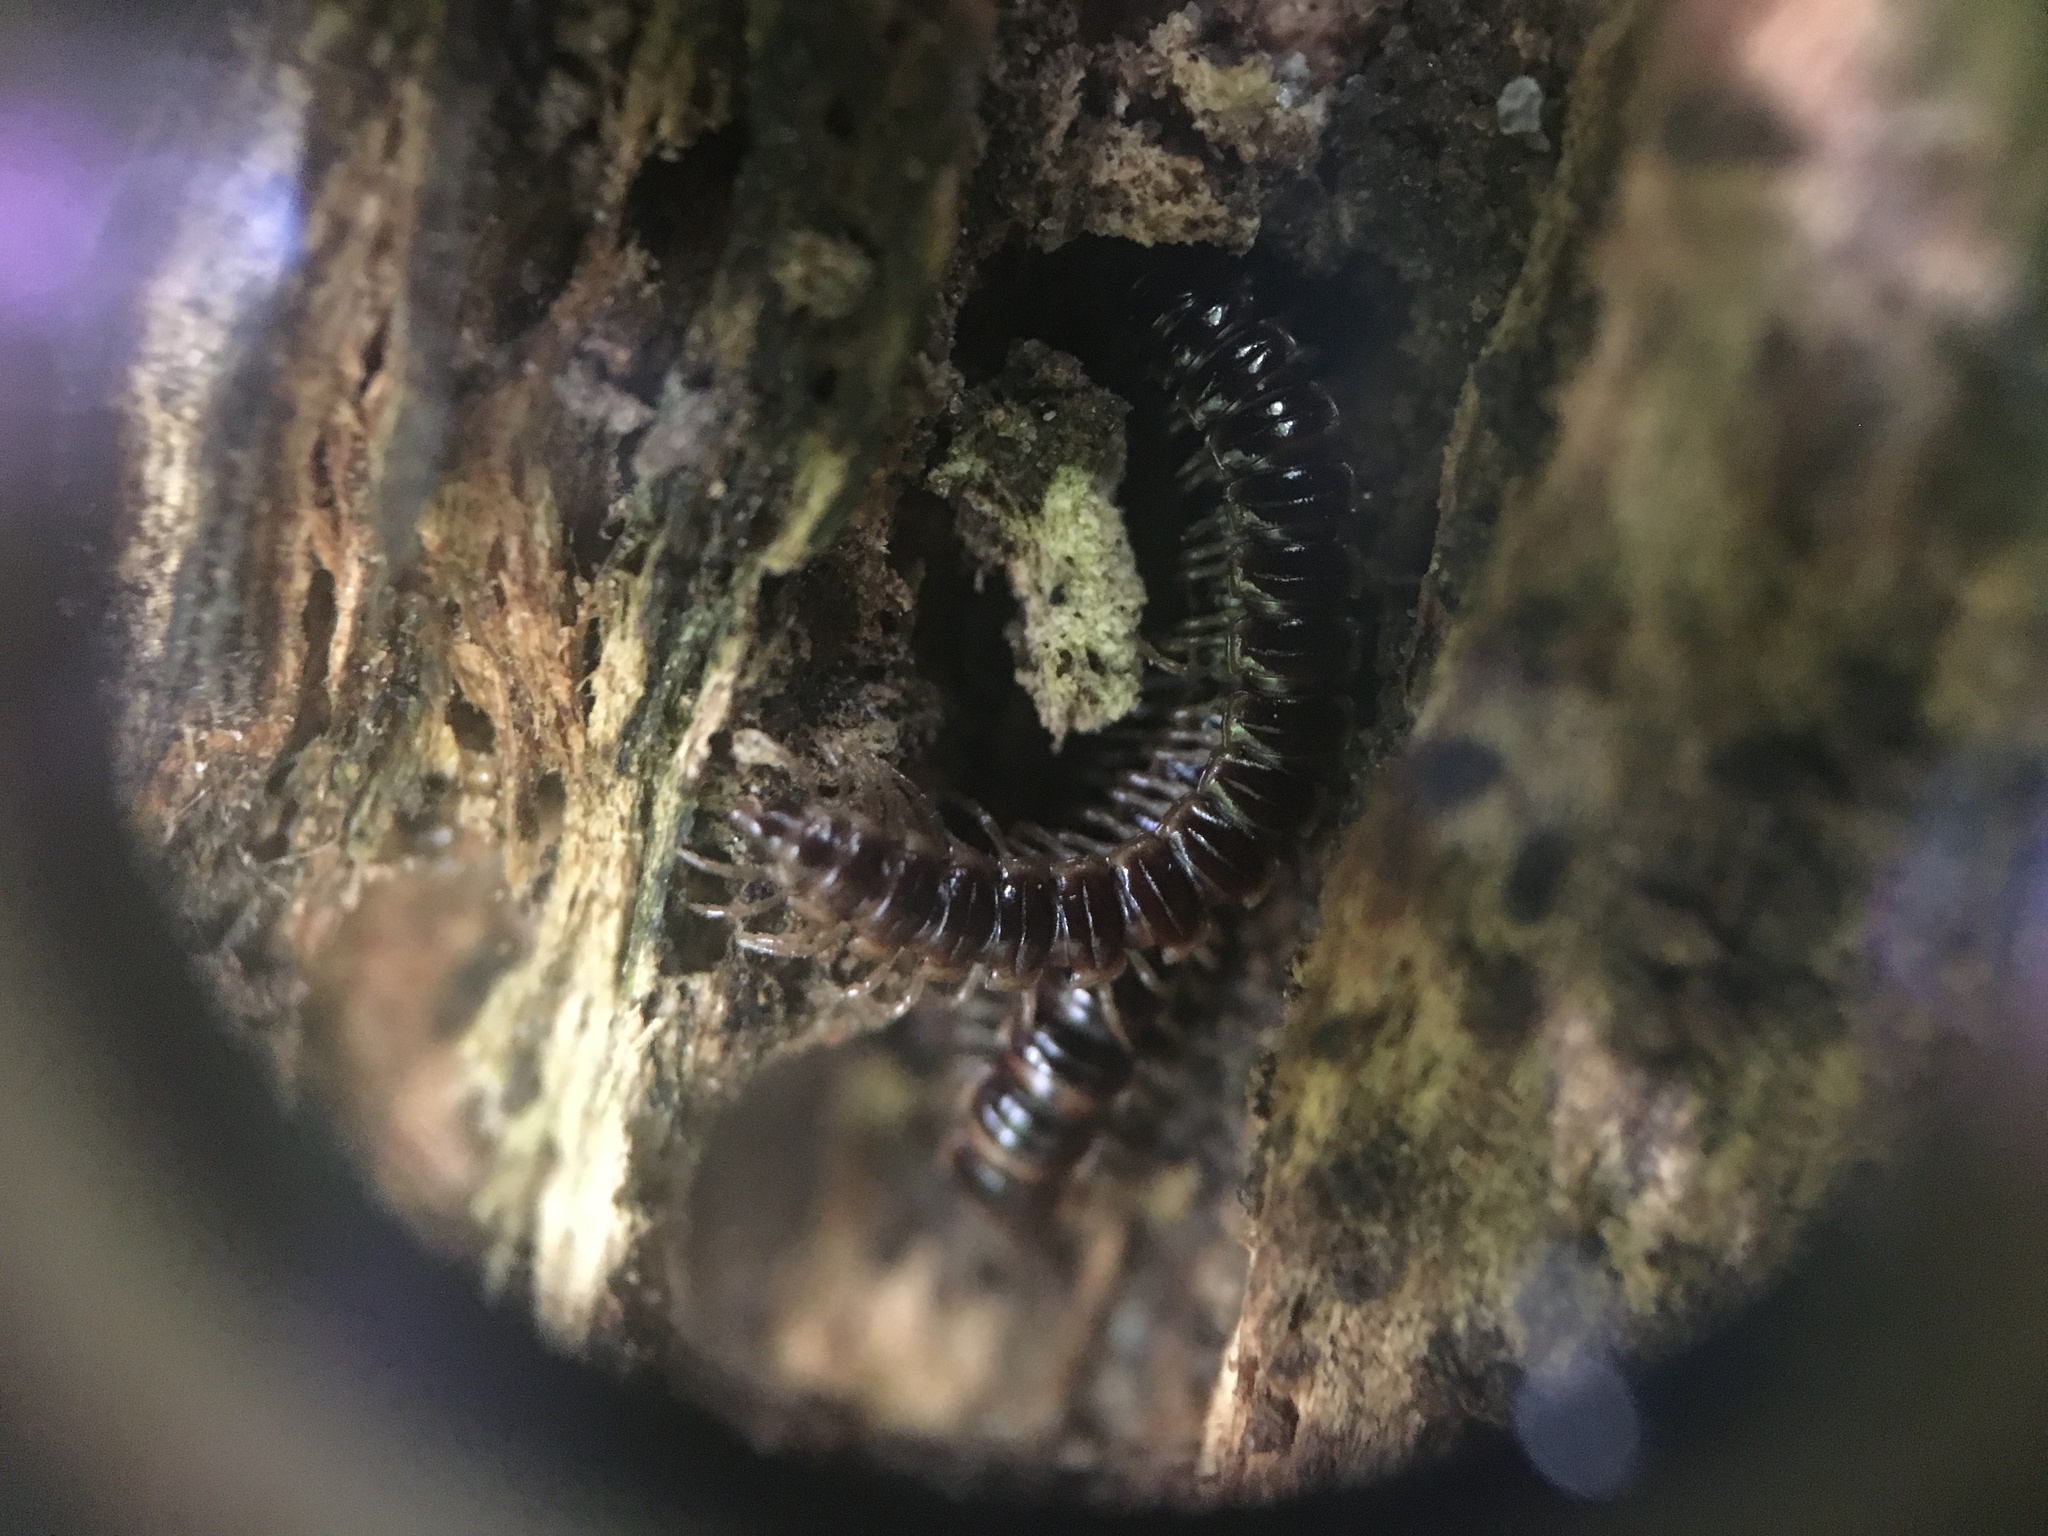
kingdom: Animalia
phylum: Arthropoda
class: Diplopoda
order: Polydesmida
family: Paradoxosomatidae
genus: Oxidus
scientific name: Oxidus gracilis
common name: Greenhouse millipede
